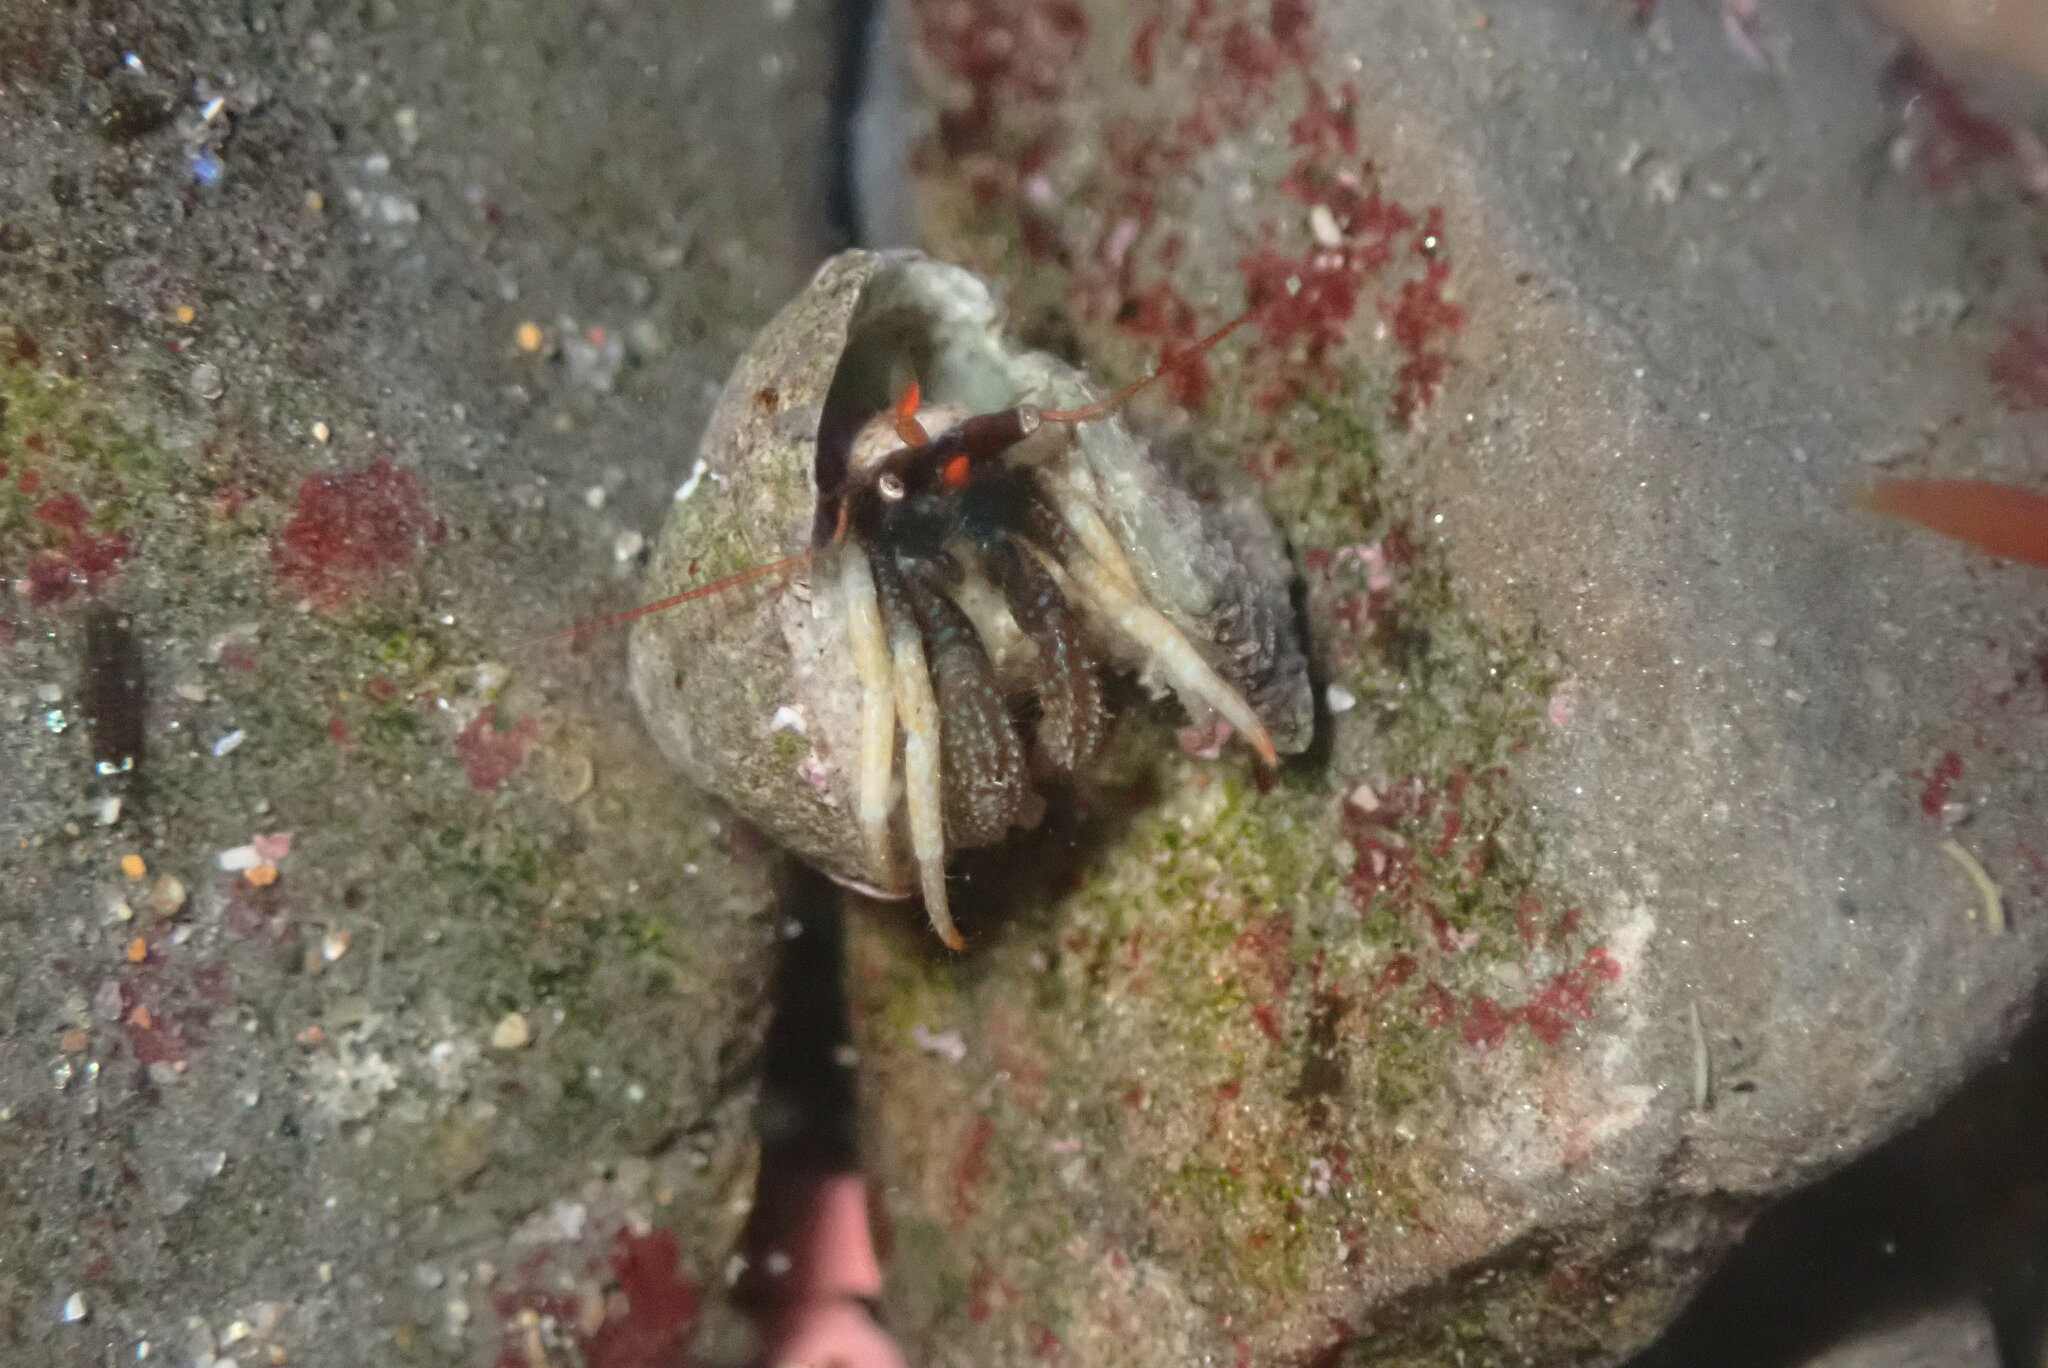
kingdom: Animalia
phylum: Arthropoda
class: Malacostraca
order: Decapoda
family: Paguridae
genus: Pagurus
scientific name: Pagurus granosimanus
